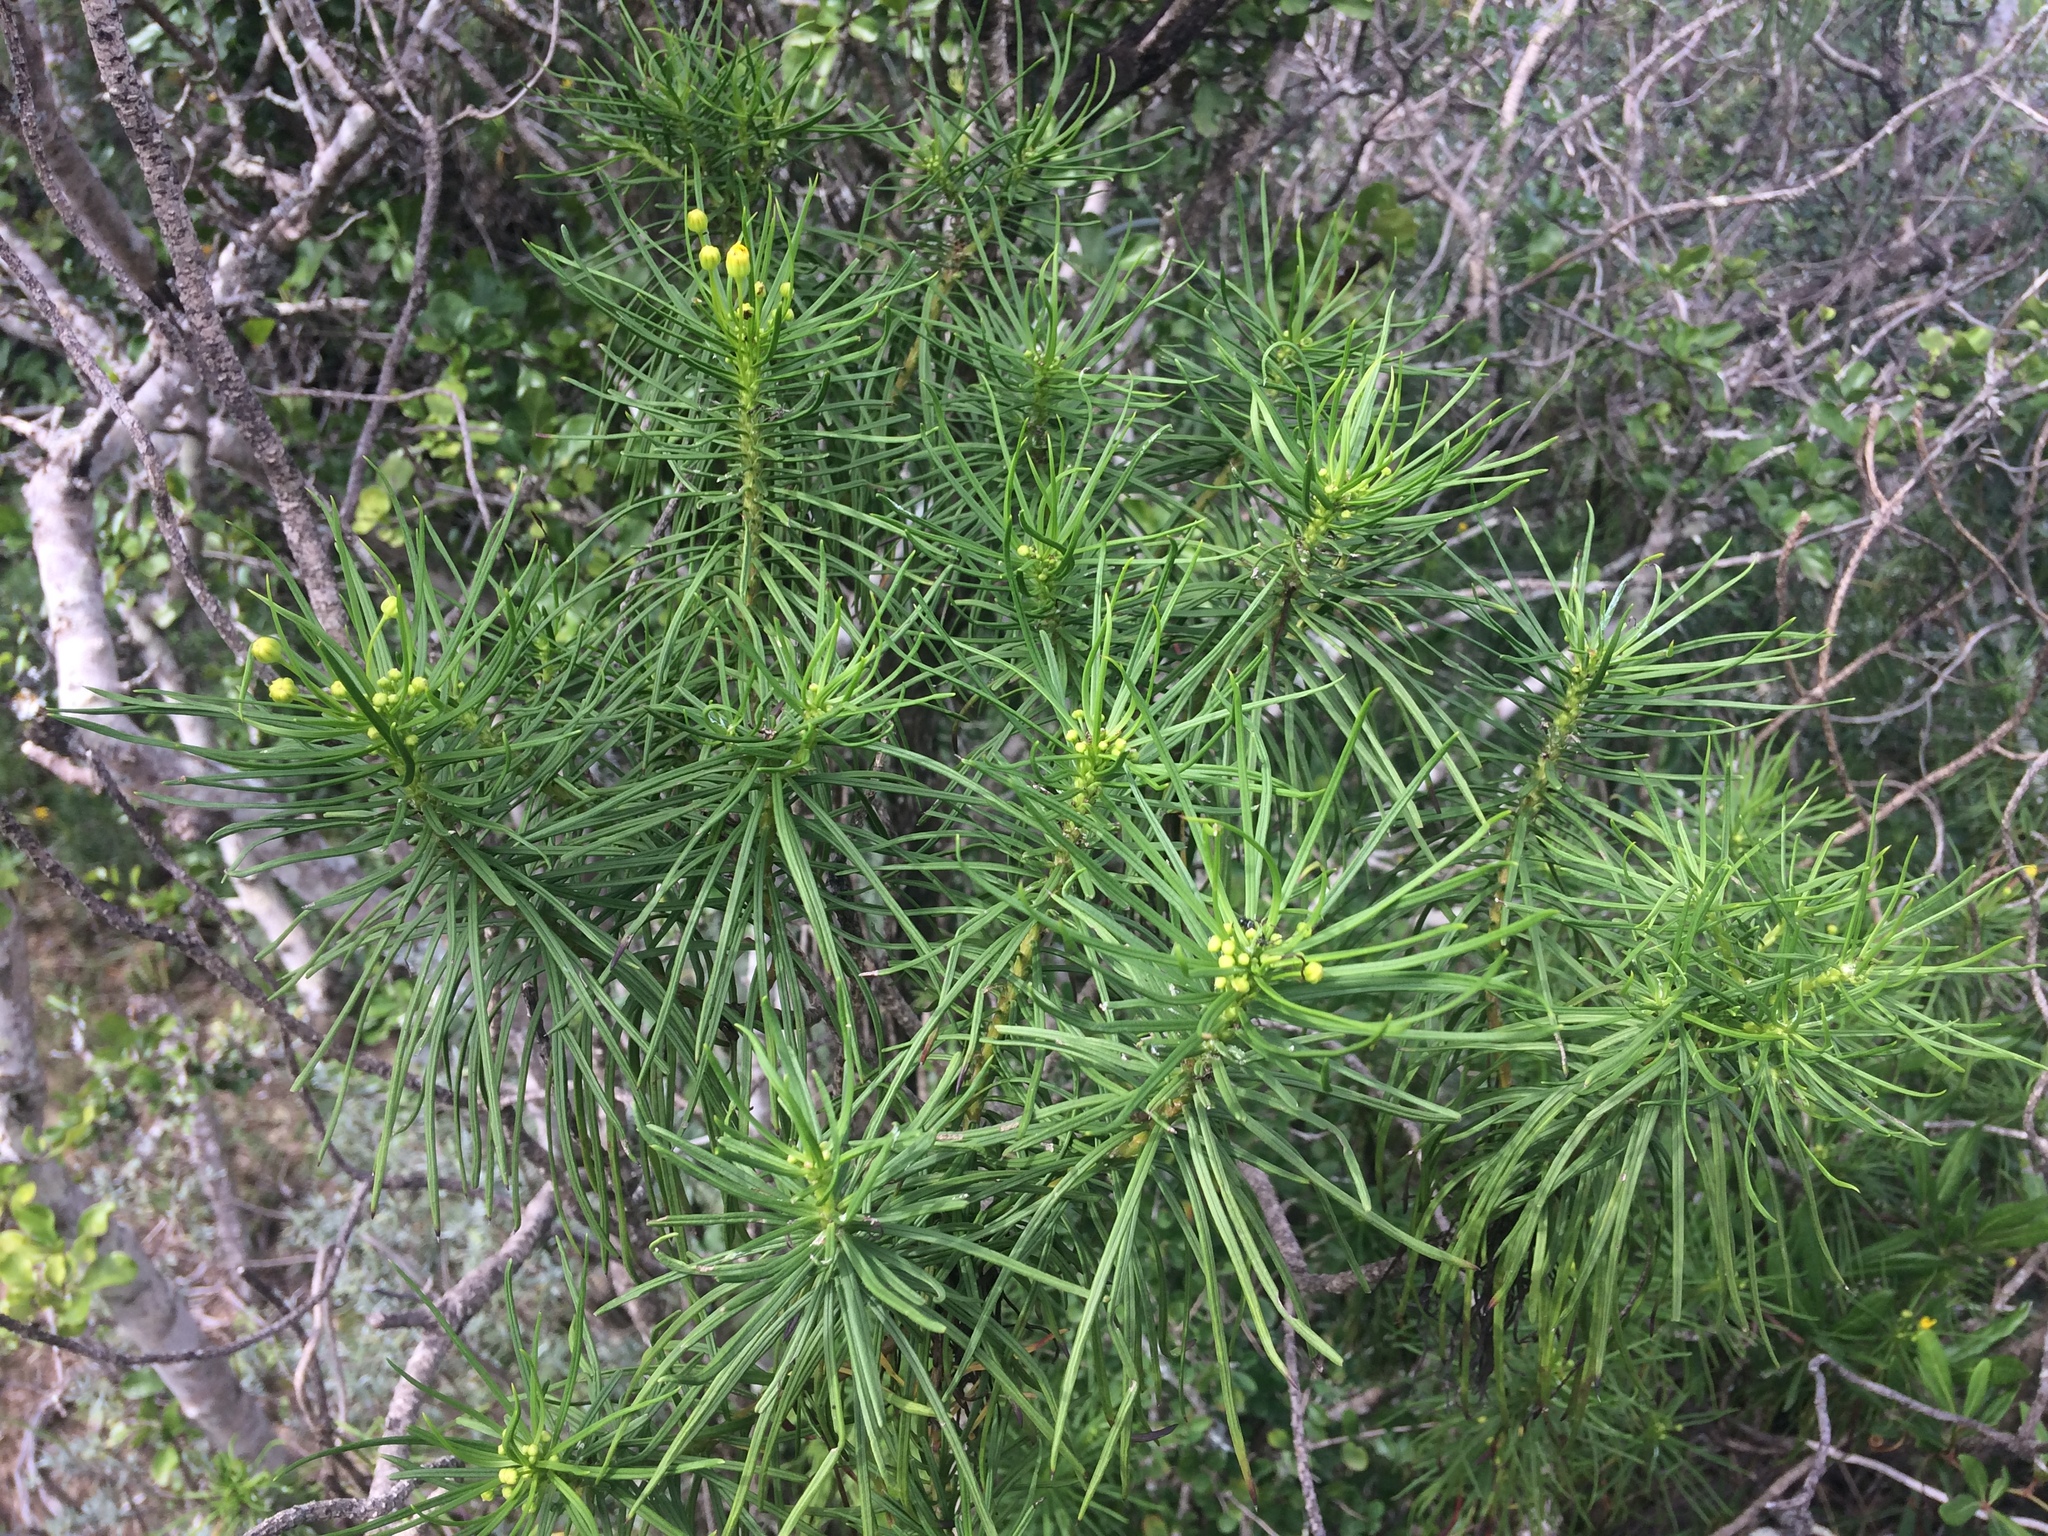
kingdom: Plantae
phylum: Tracheophyta
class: Magnoliopsida
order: Asterales
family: Asteraceae
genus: Euryops
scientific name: Euryops brevipapposus
